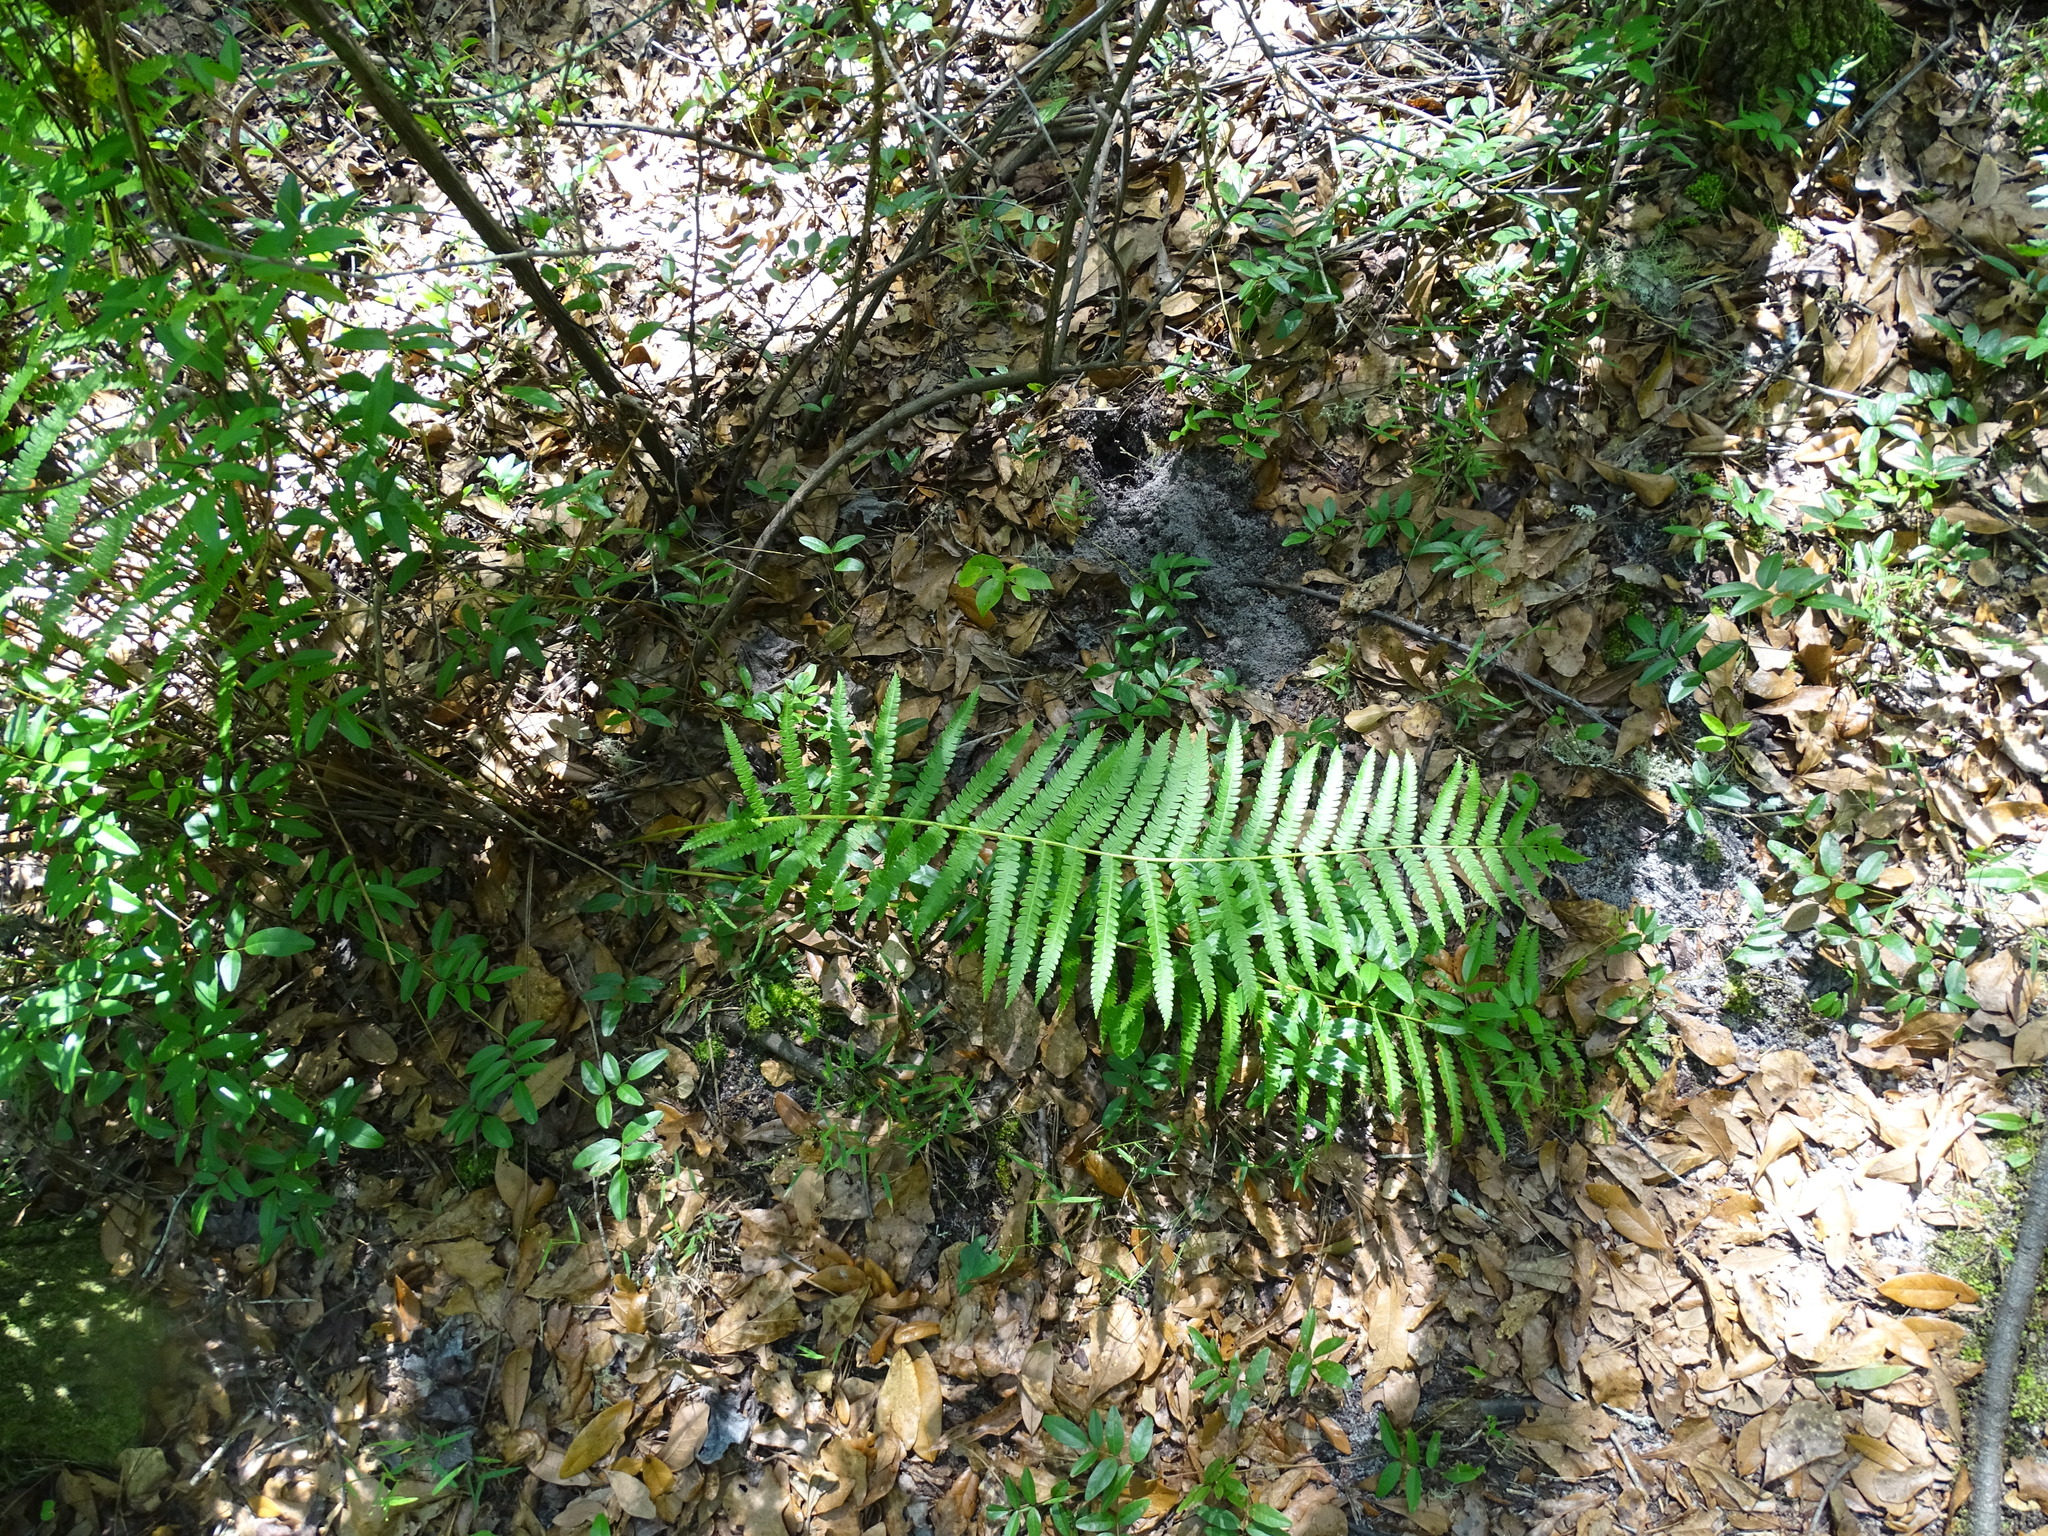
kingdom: Plantae
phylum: Tracheophyta
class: Polypodiopsida
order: Osmundales
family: Osmundaceae
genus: Osmundastrum
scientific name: Osmundastrum cinnamomeum
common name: Cinnamon fern
